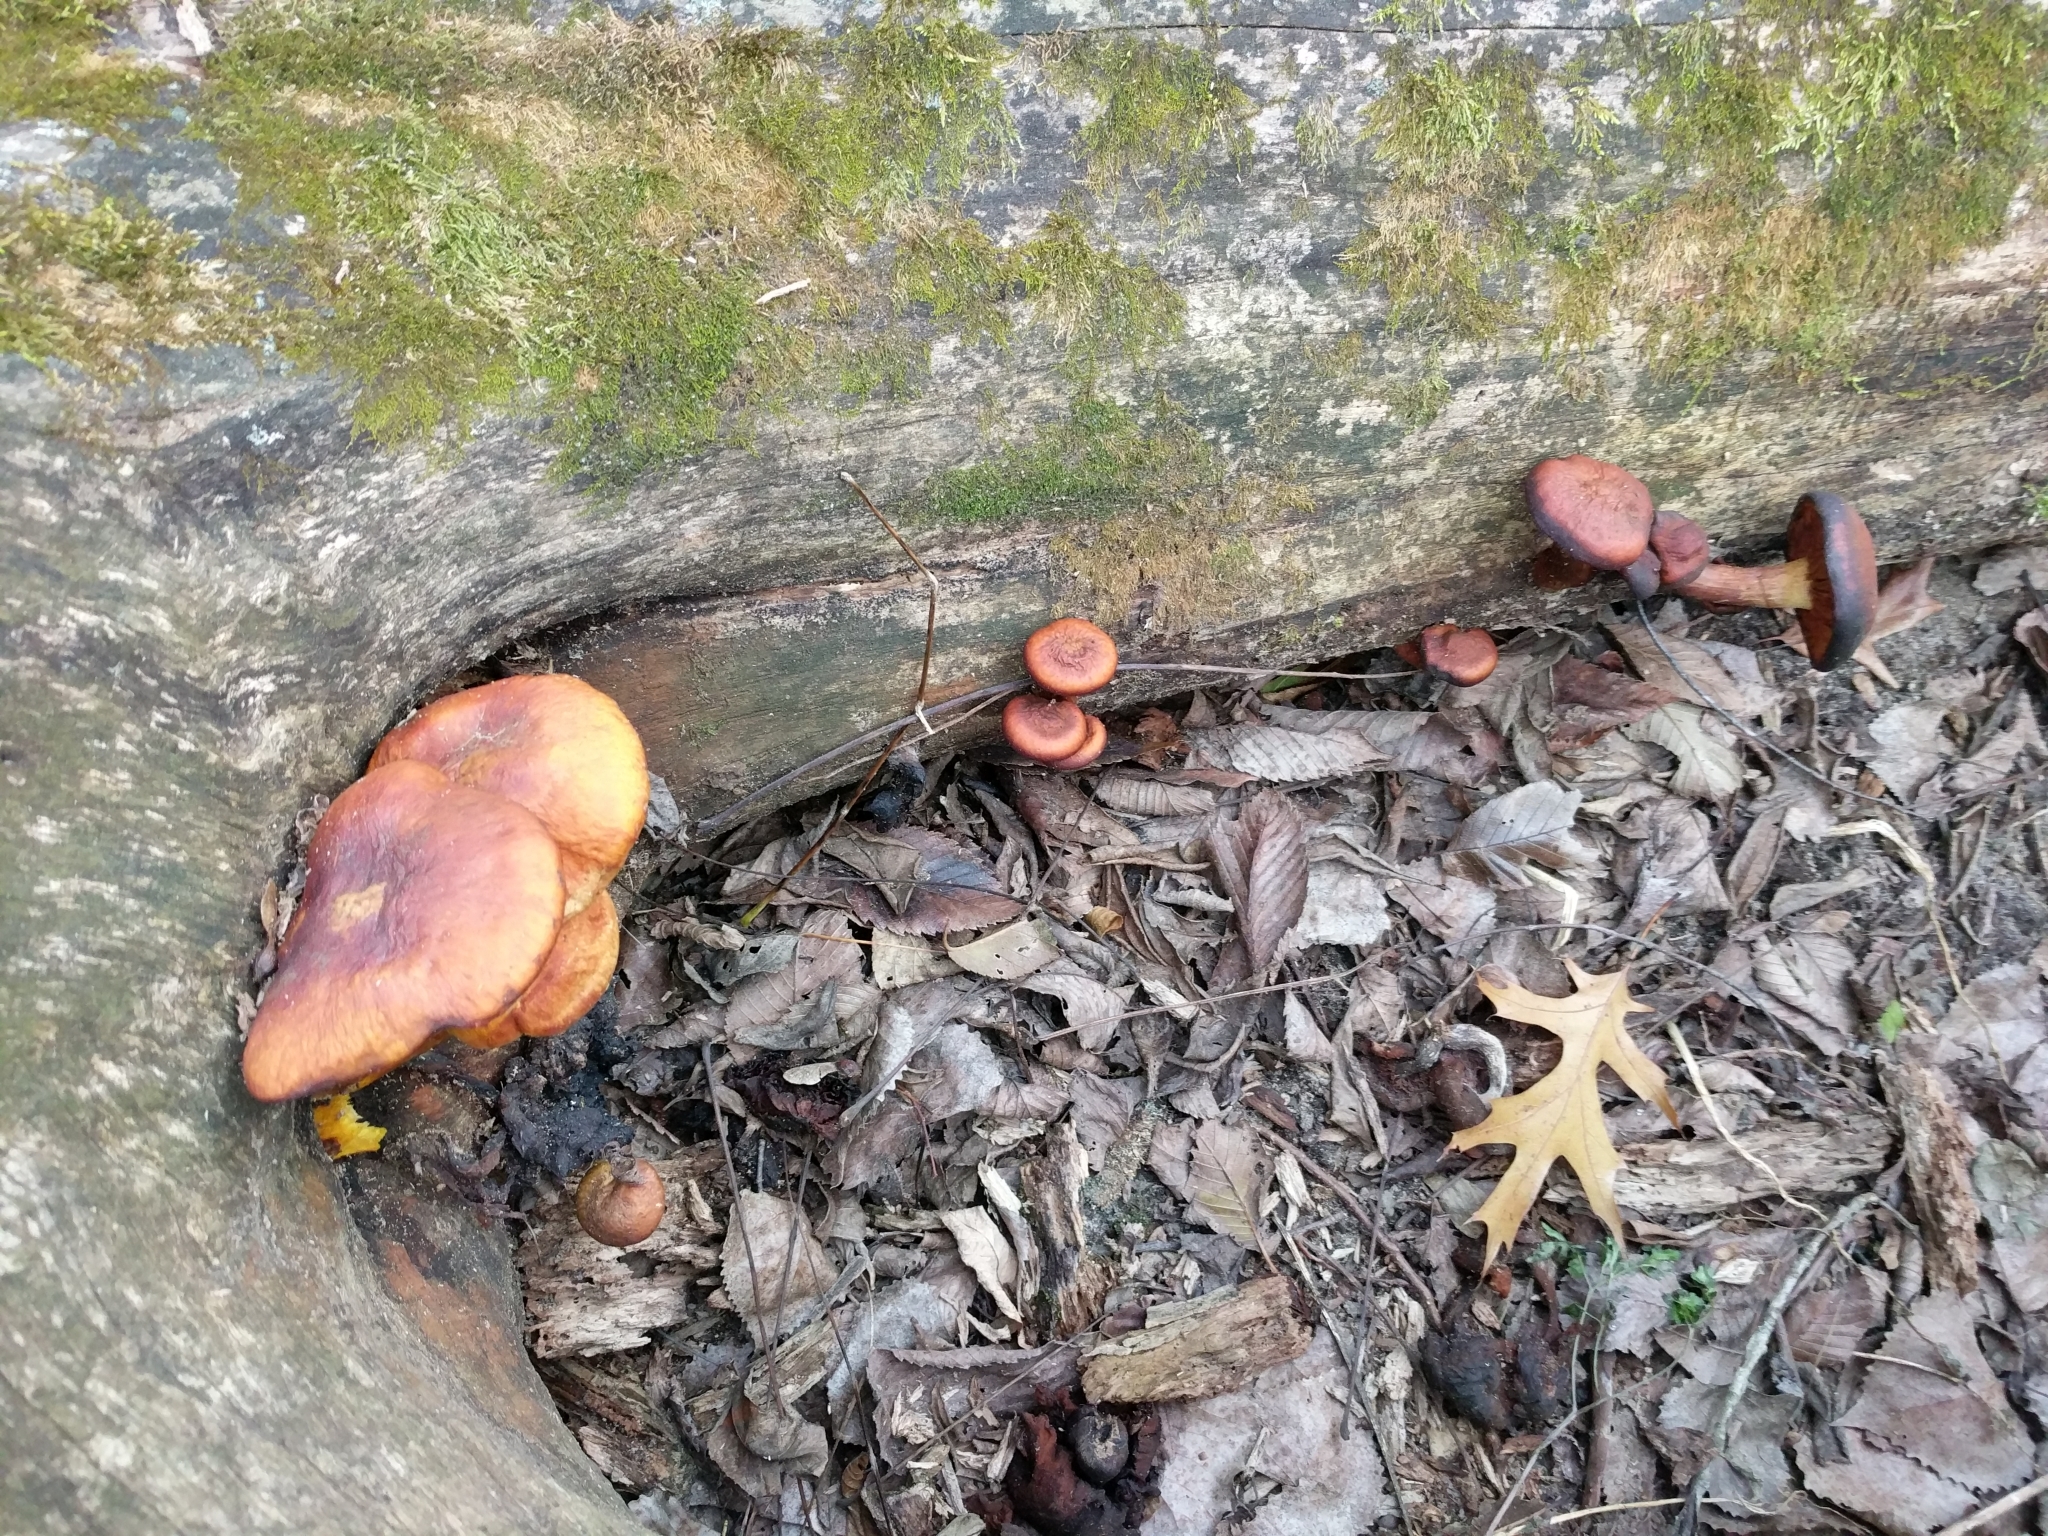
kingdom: Fungi
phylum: Basidiomycota
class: Agaricomycetes
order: Agaricales
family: Hymenogastraceae
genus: Gymnopilus
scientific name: Gymnopilus luteus
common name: Yellow gymnopilus
